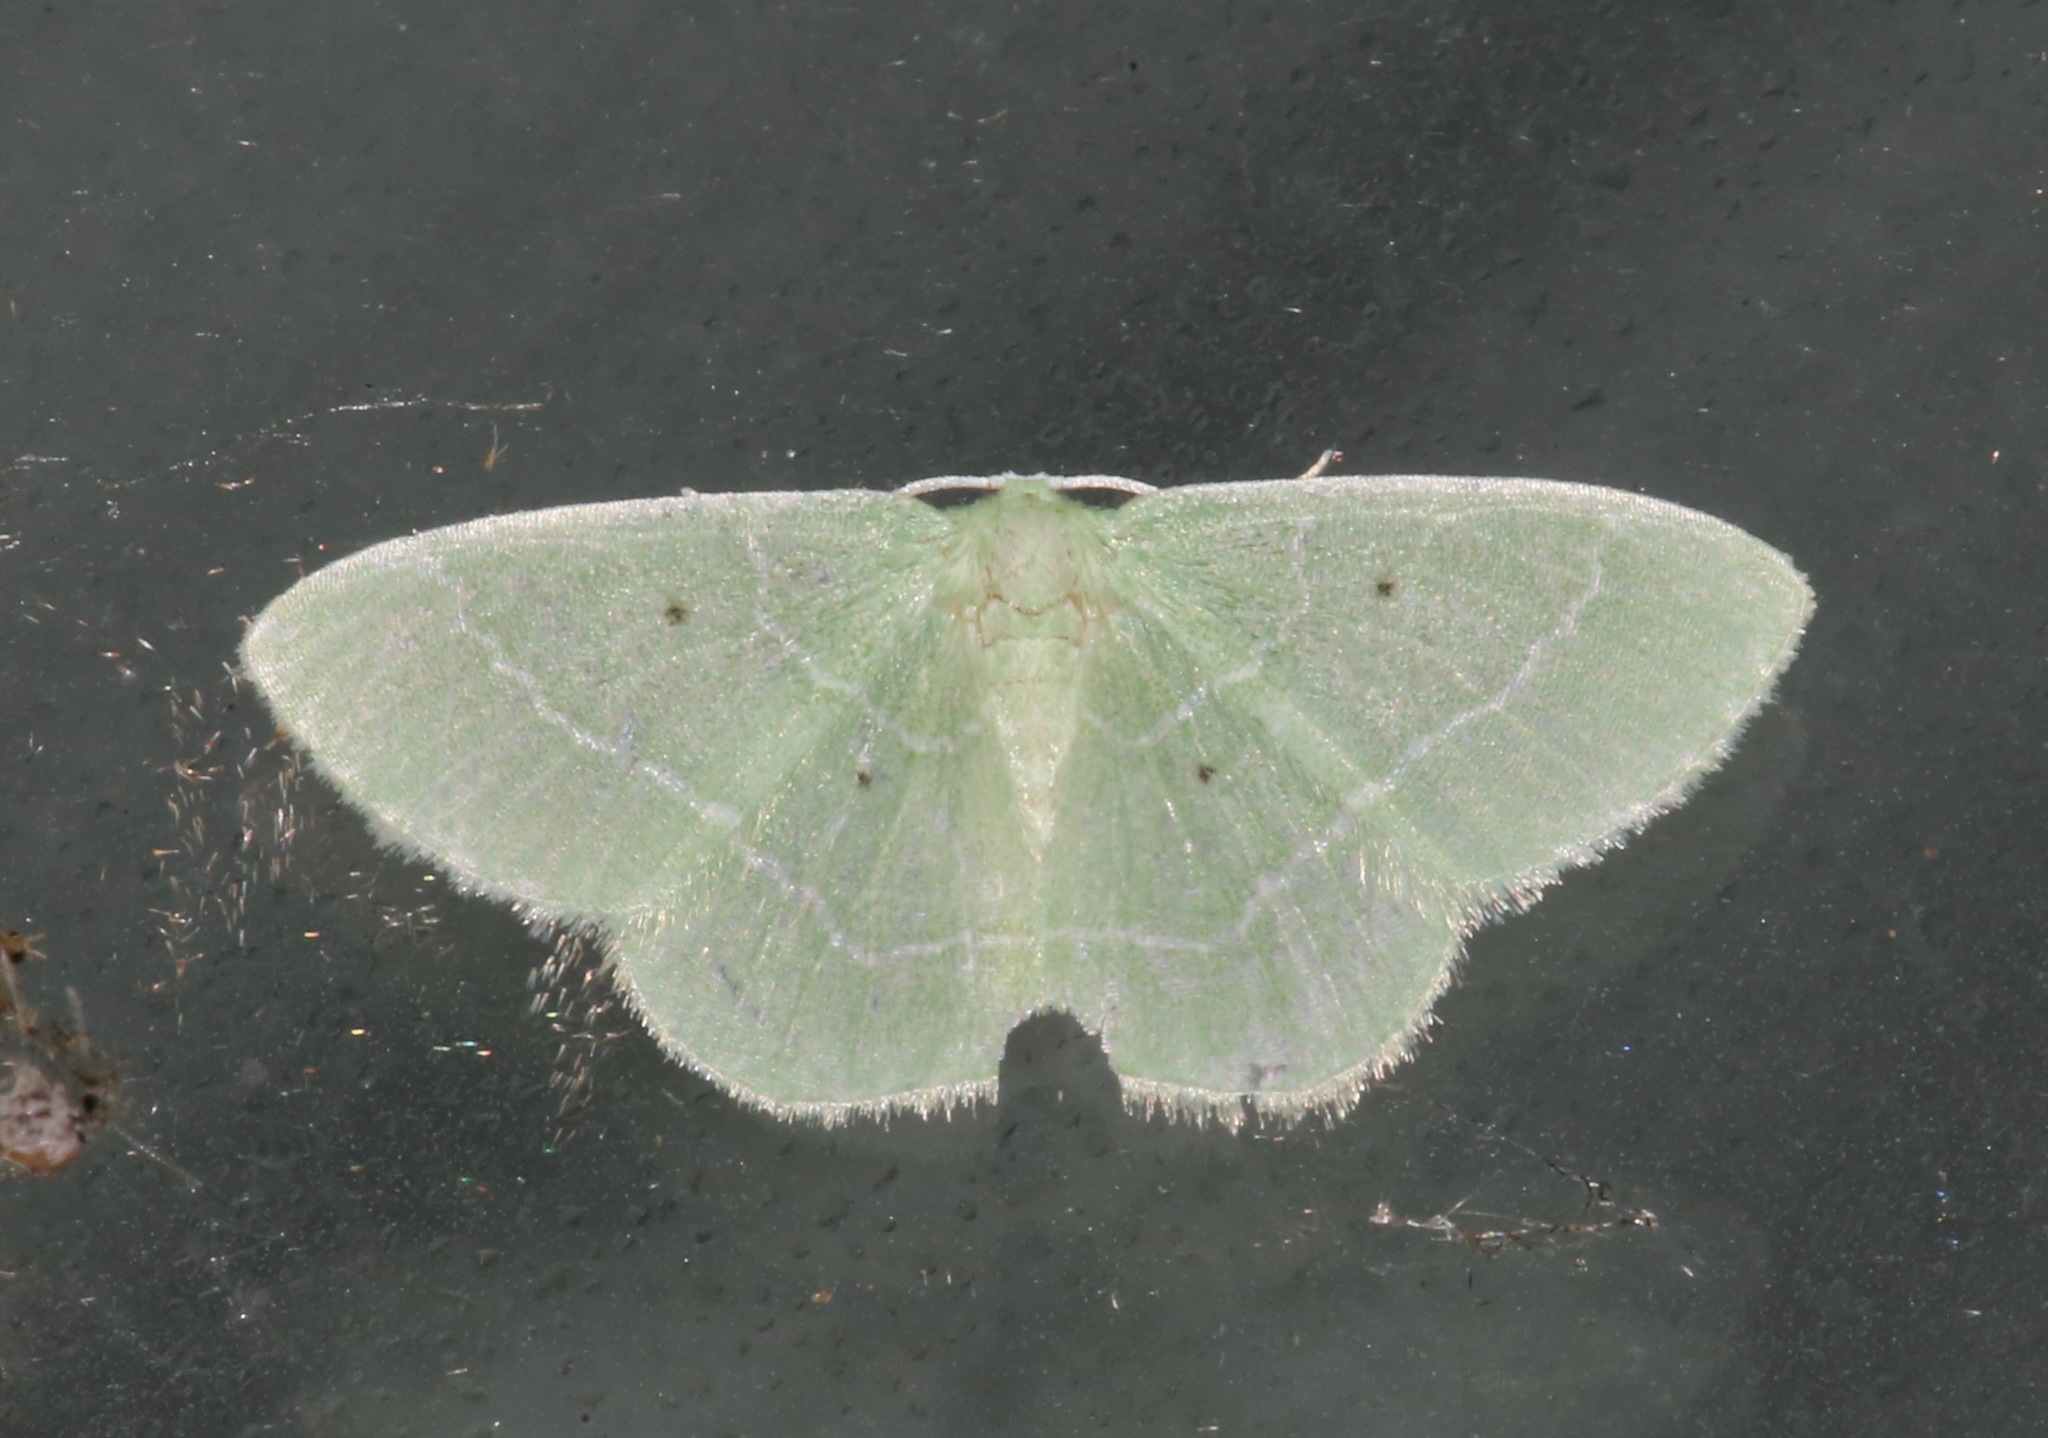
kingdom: Animalia
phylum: Arthropoda
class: Insecta
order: Lepidoptera
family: Geometridae
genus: Nemoria
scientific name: Nemoria elfa
